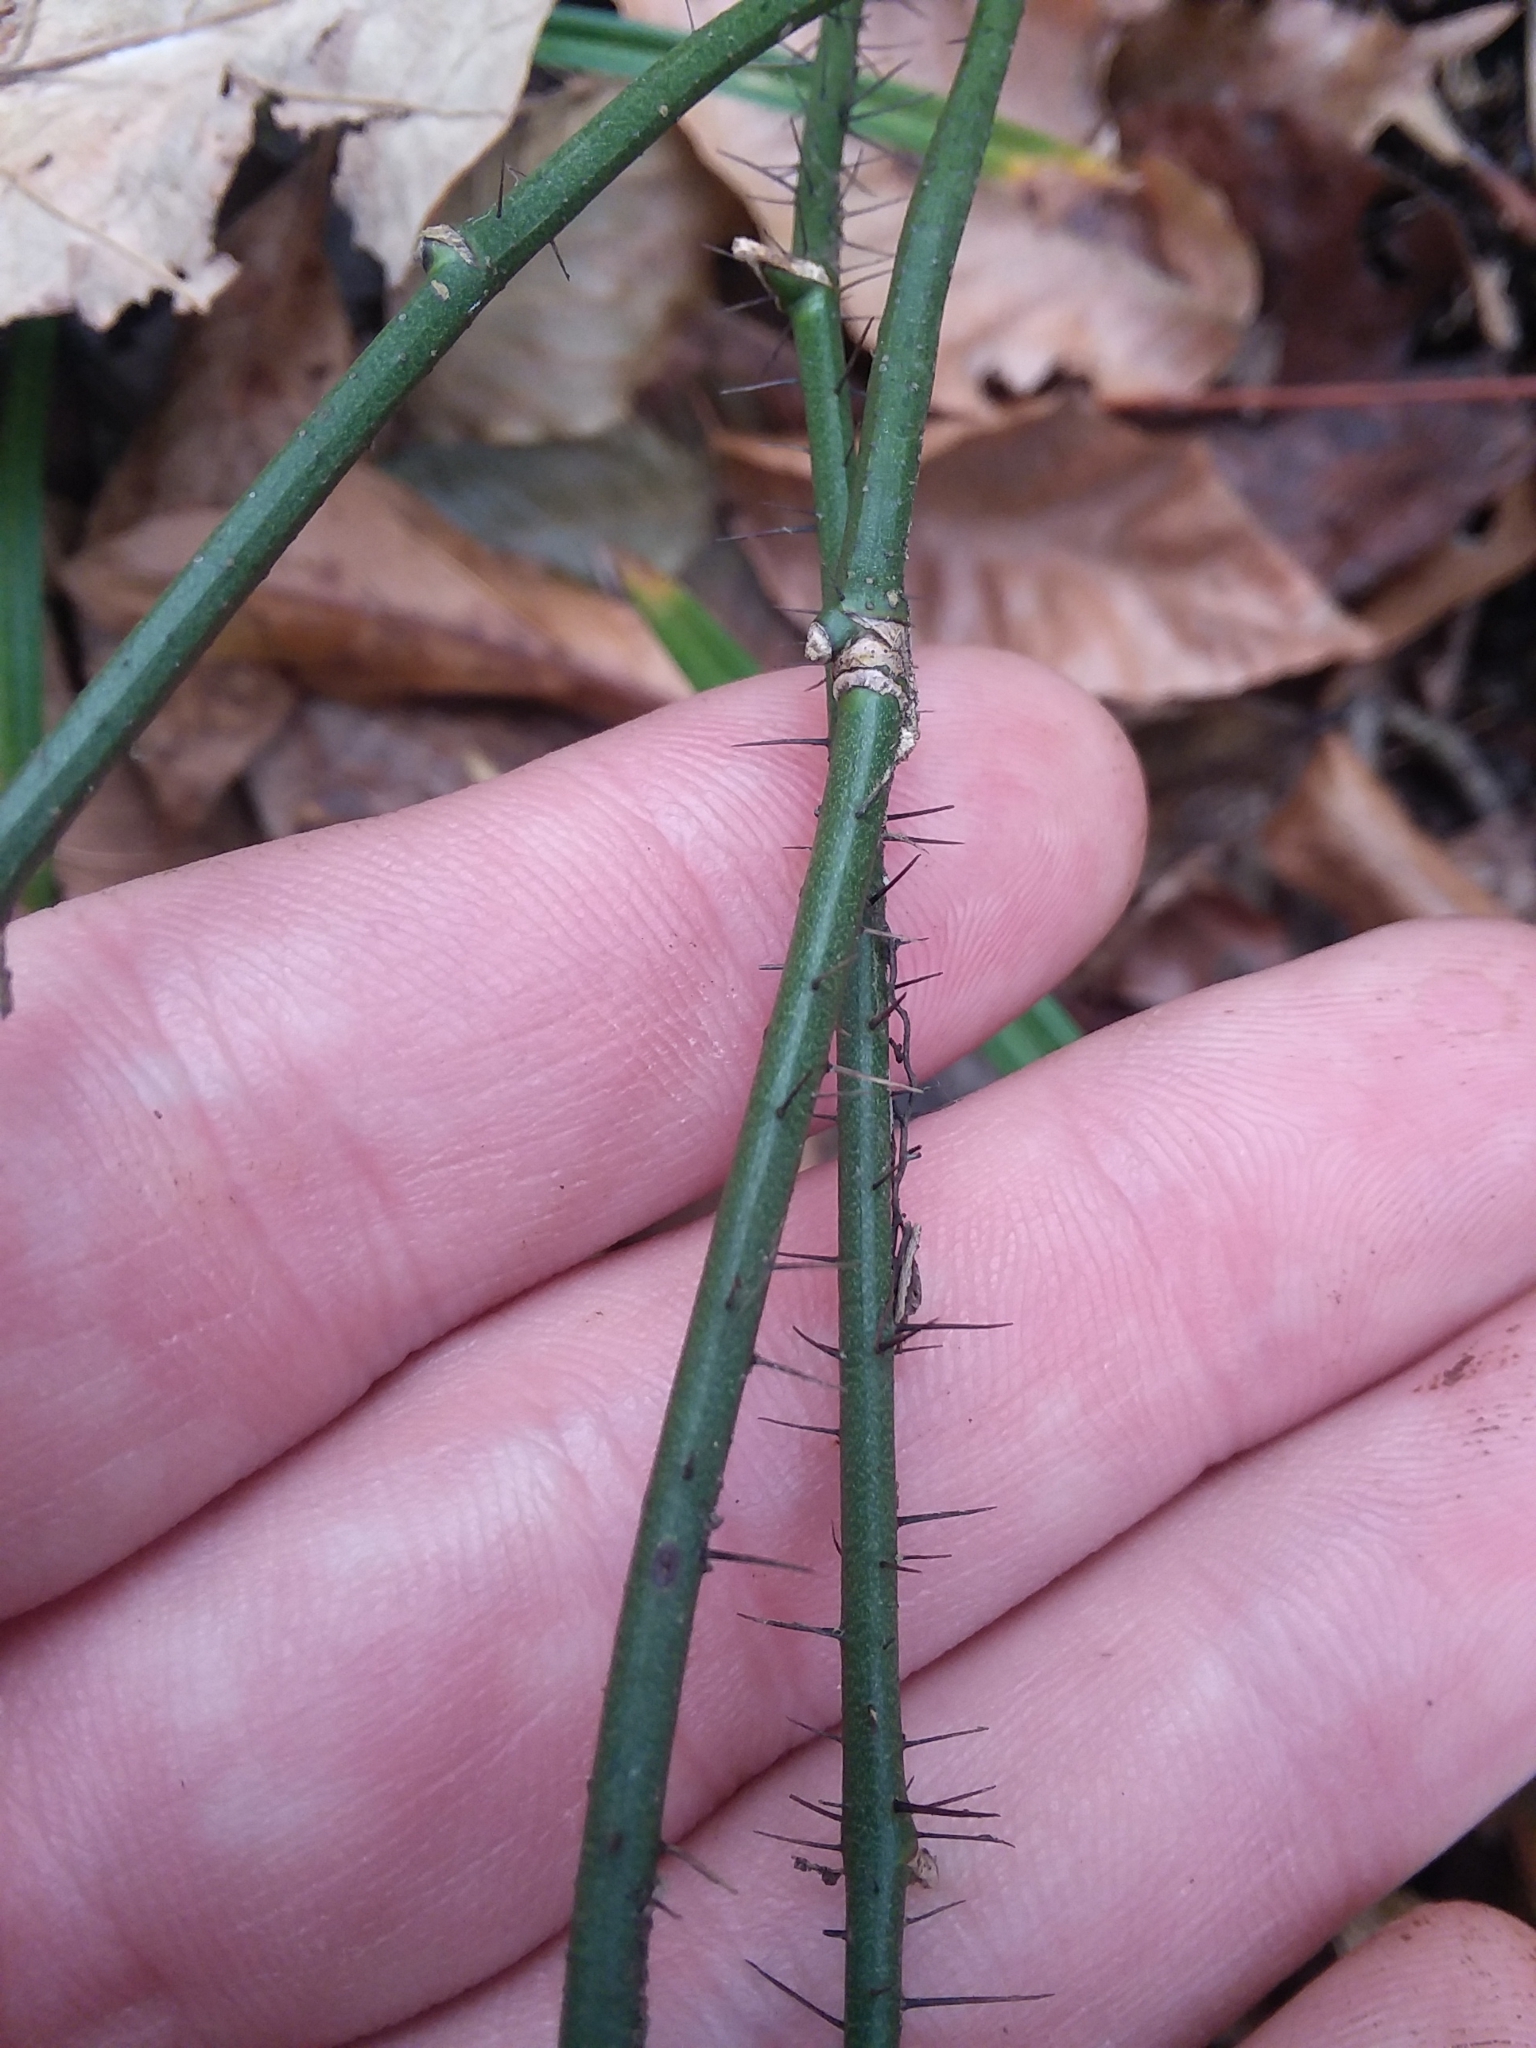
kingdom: Plantae
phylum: Tracheophyta
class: Liliopsida
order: Liliales
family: Smilacaceae
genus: Smilax
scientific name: Smilax tamnoides
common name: Hellfetter
